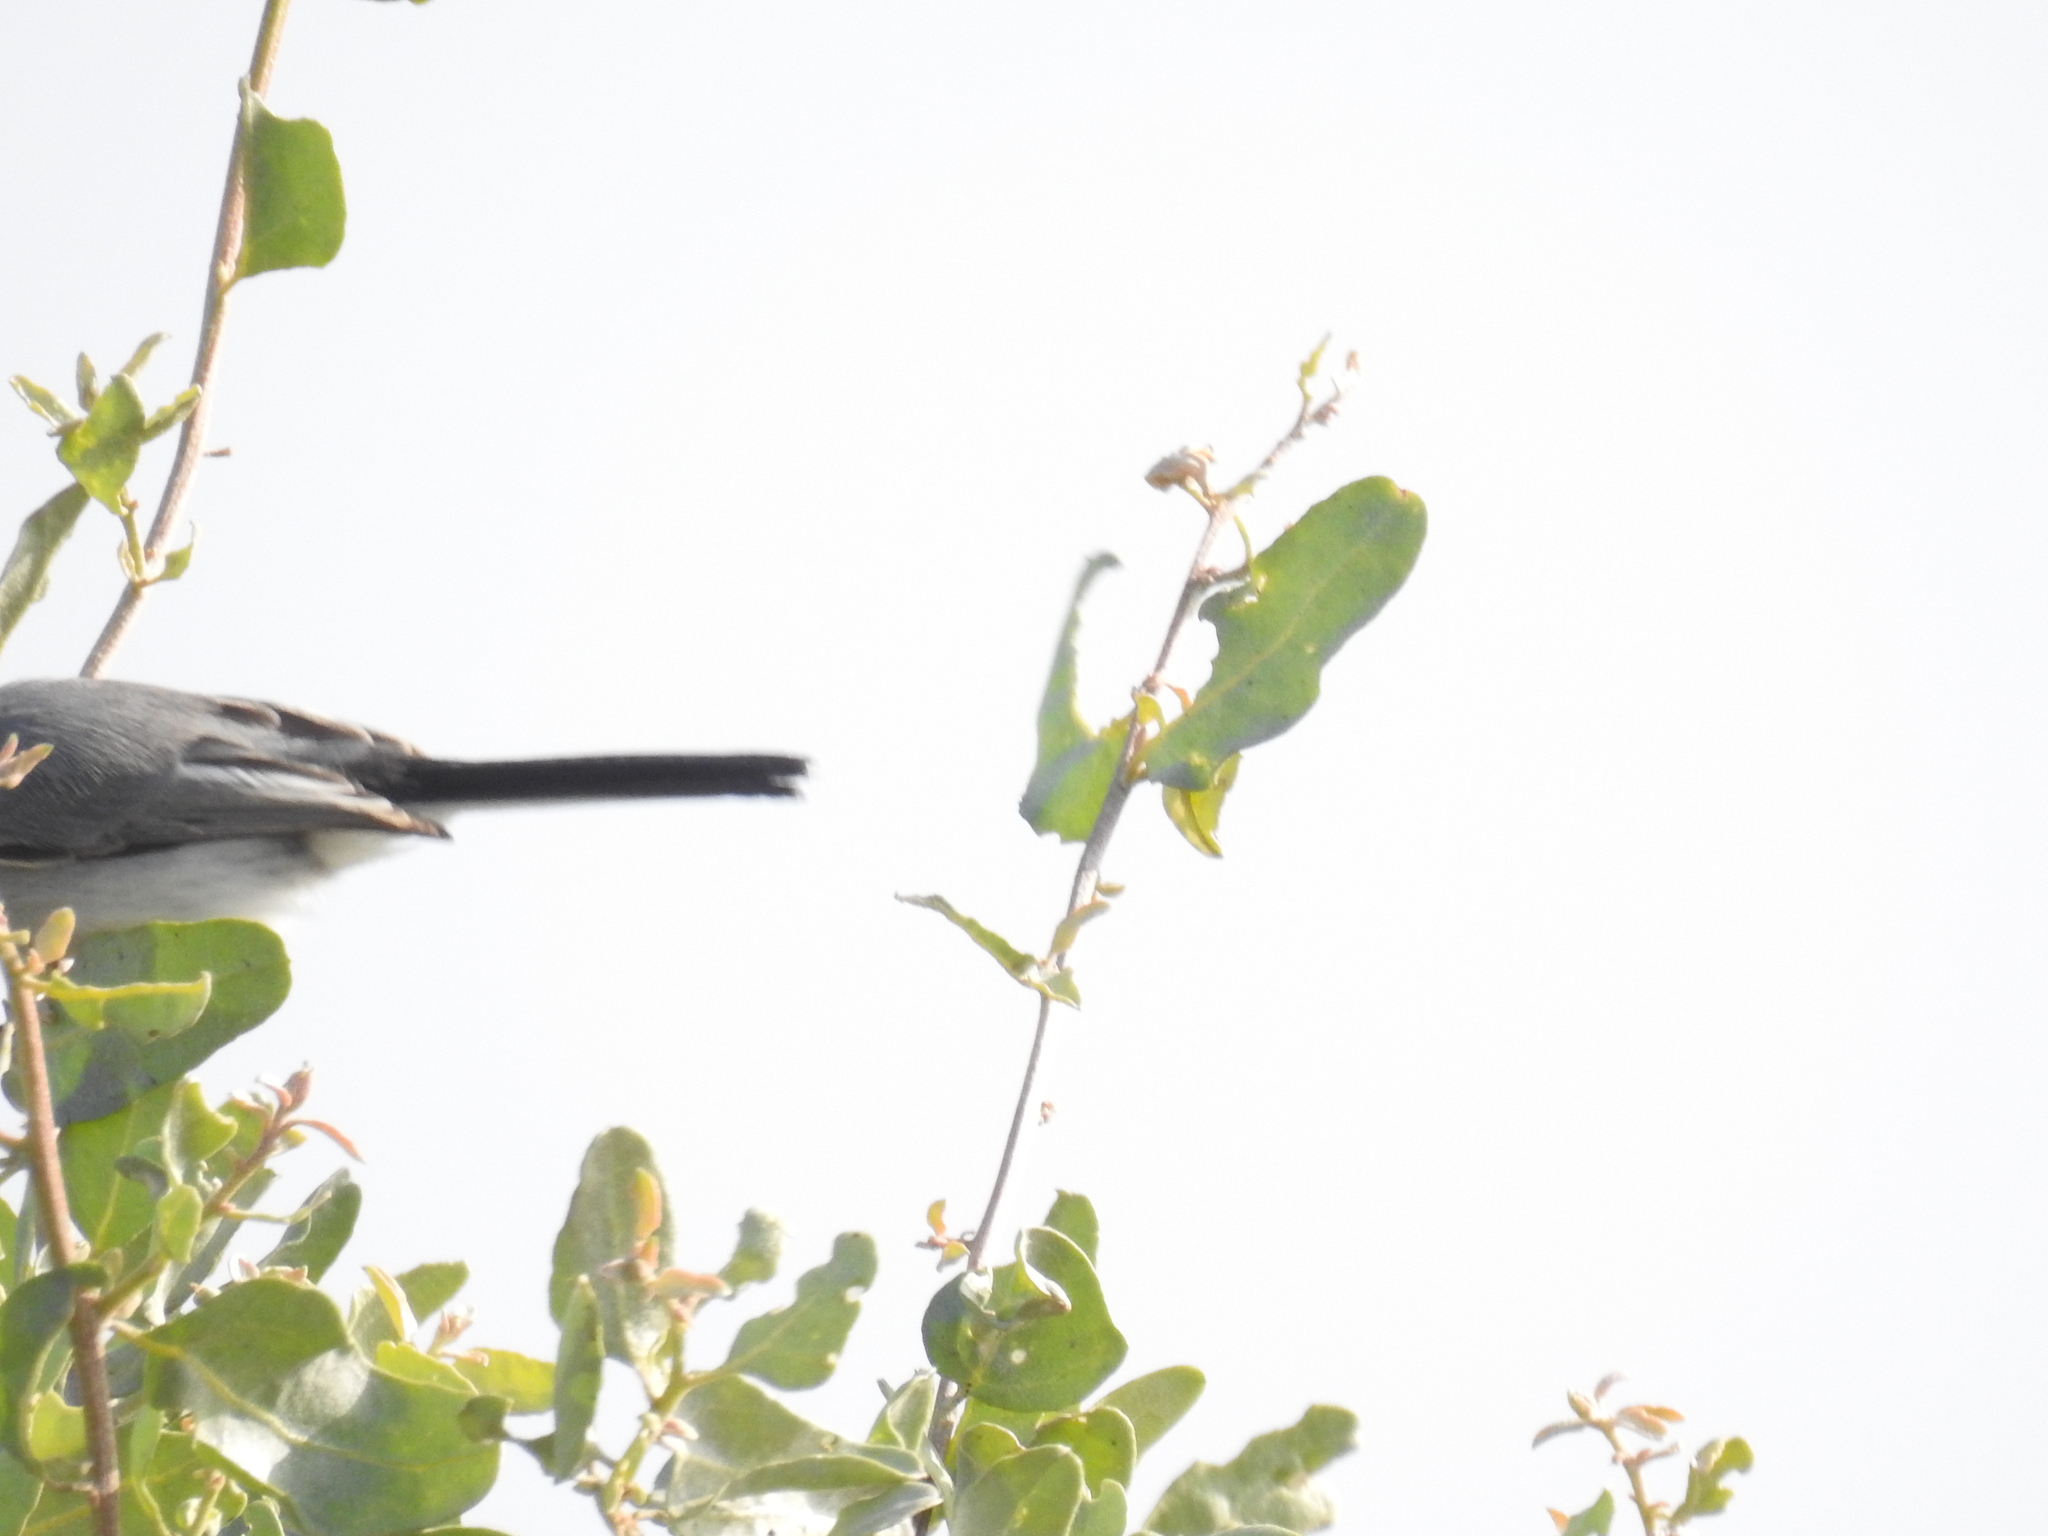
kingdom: Animalia
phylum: Chordata
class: Aves
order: Passeriformes
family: Polioptilidae
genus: Polioptila
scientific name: Polioptila caerulea
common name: Blue-gray gnatcatcher
